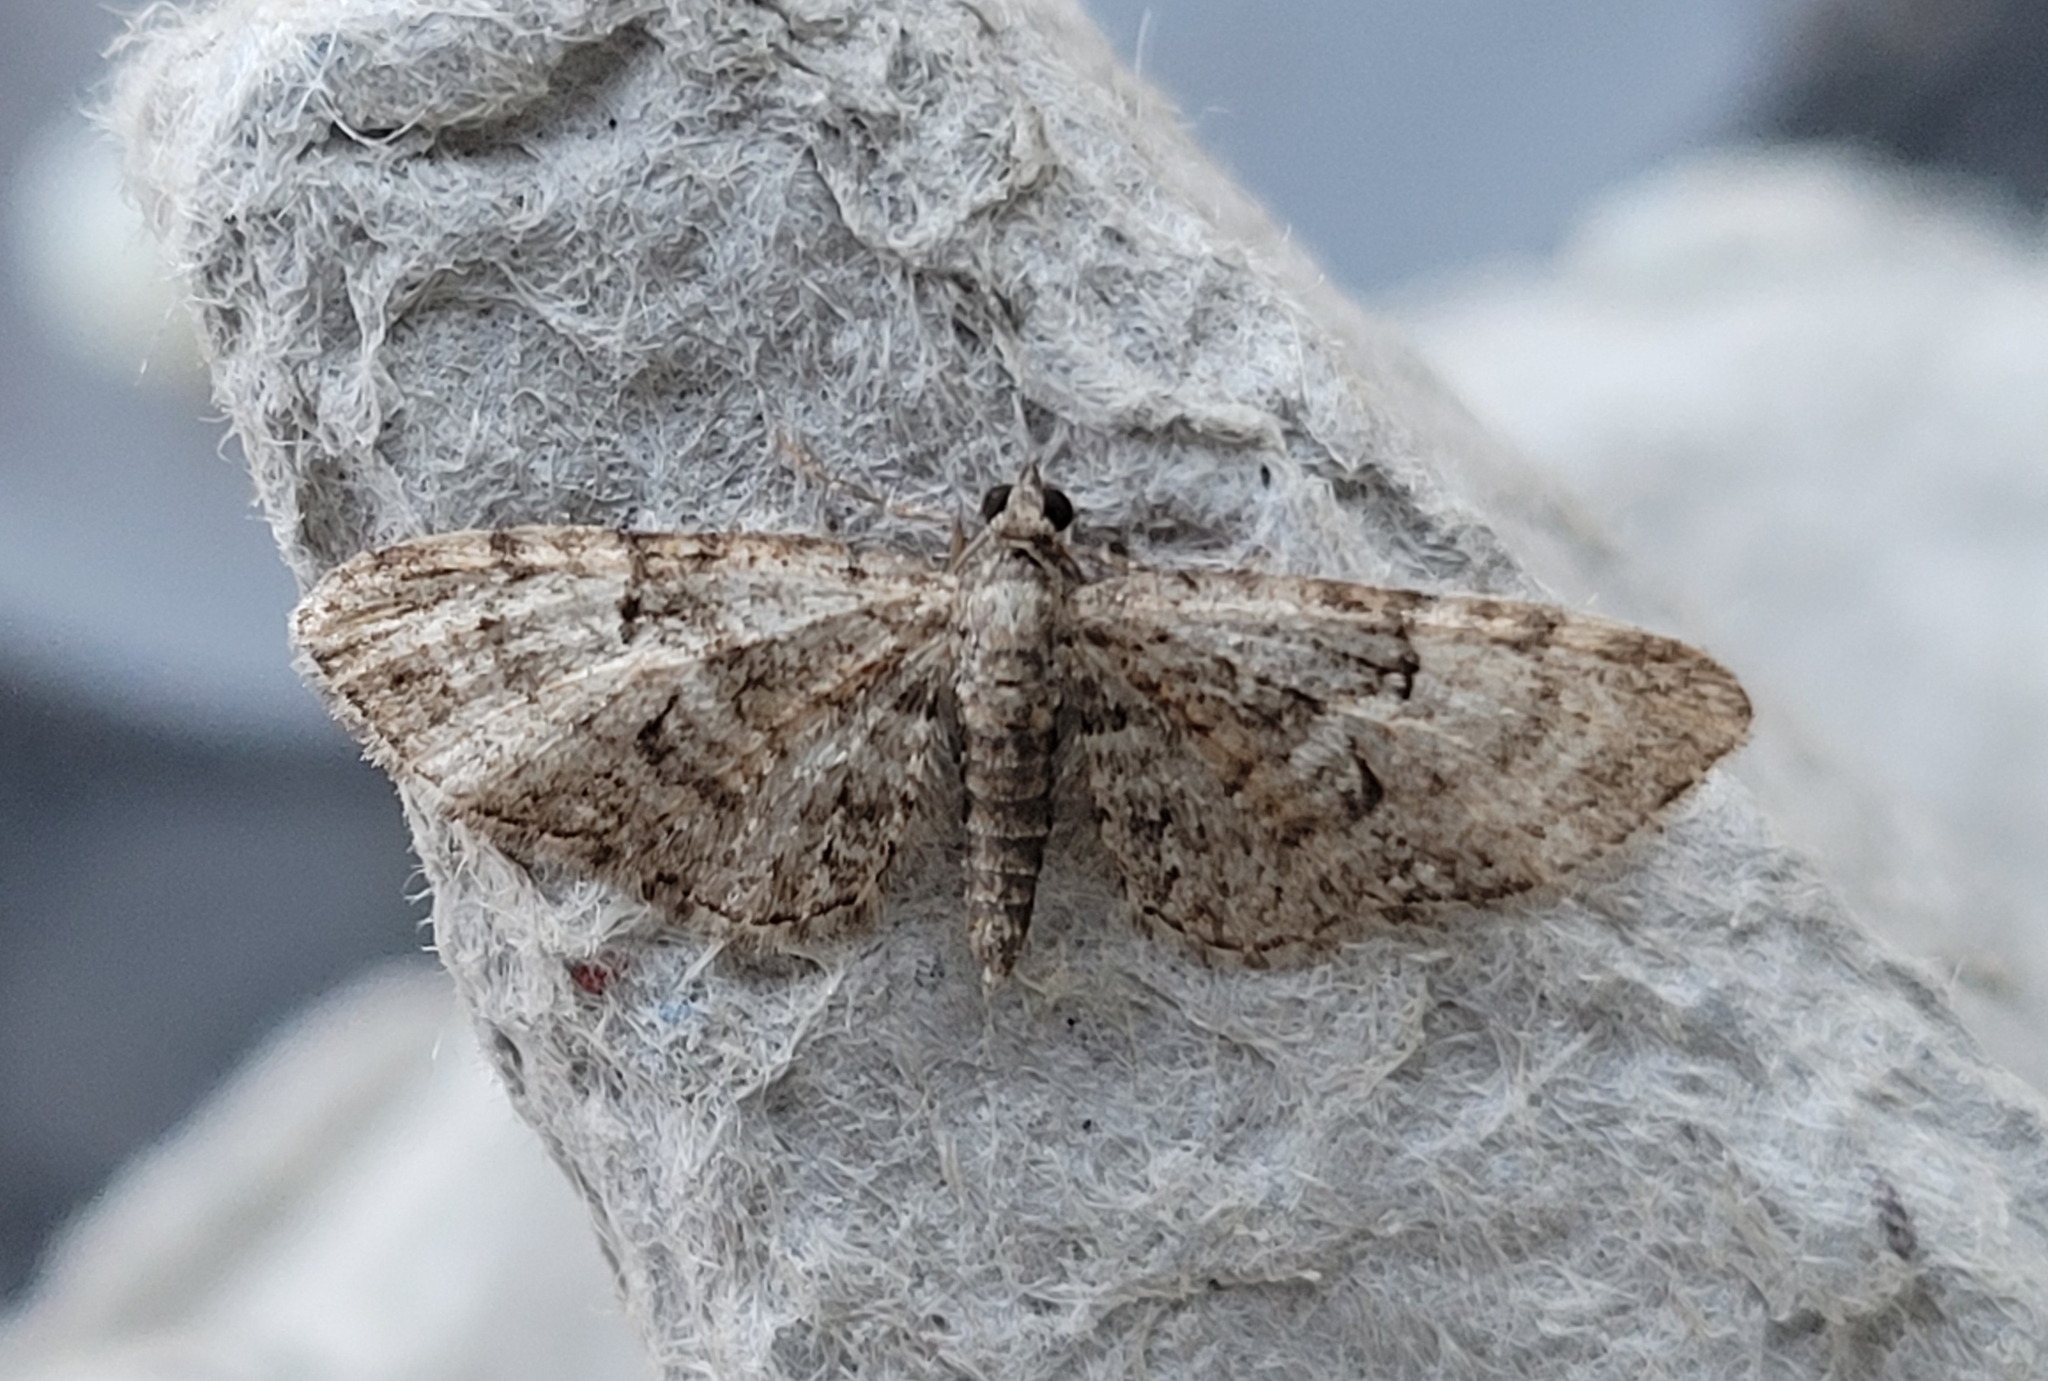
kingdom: Animalia
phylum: Arthropoda
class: Insecta
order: Lepidoptera
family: Geometridae
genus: Eupithecia
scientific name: Eupithecia abbreviata
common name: Brindled pug
